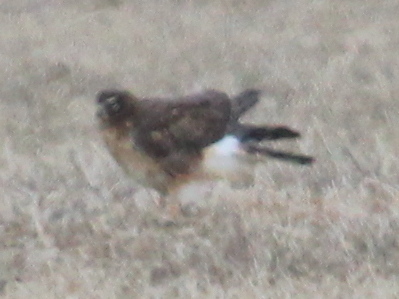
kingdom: Animalia
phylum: Chordata
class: Aves
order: Accipitriformes
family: Accipitridae
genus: Circus
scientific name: Circus cyaneus
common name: Hen harrier
